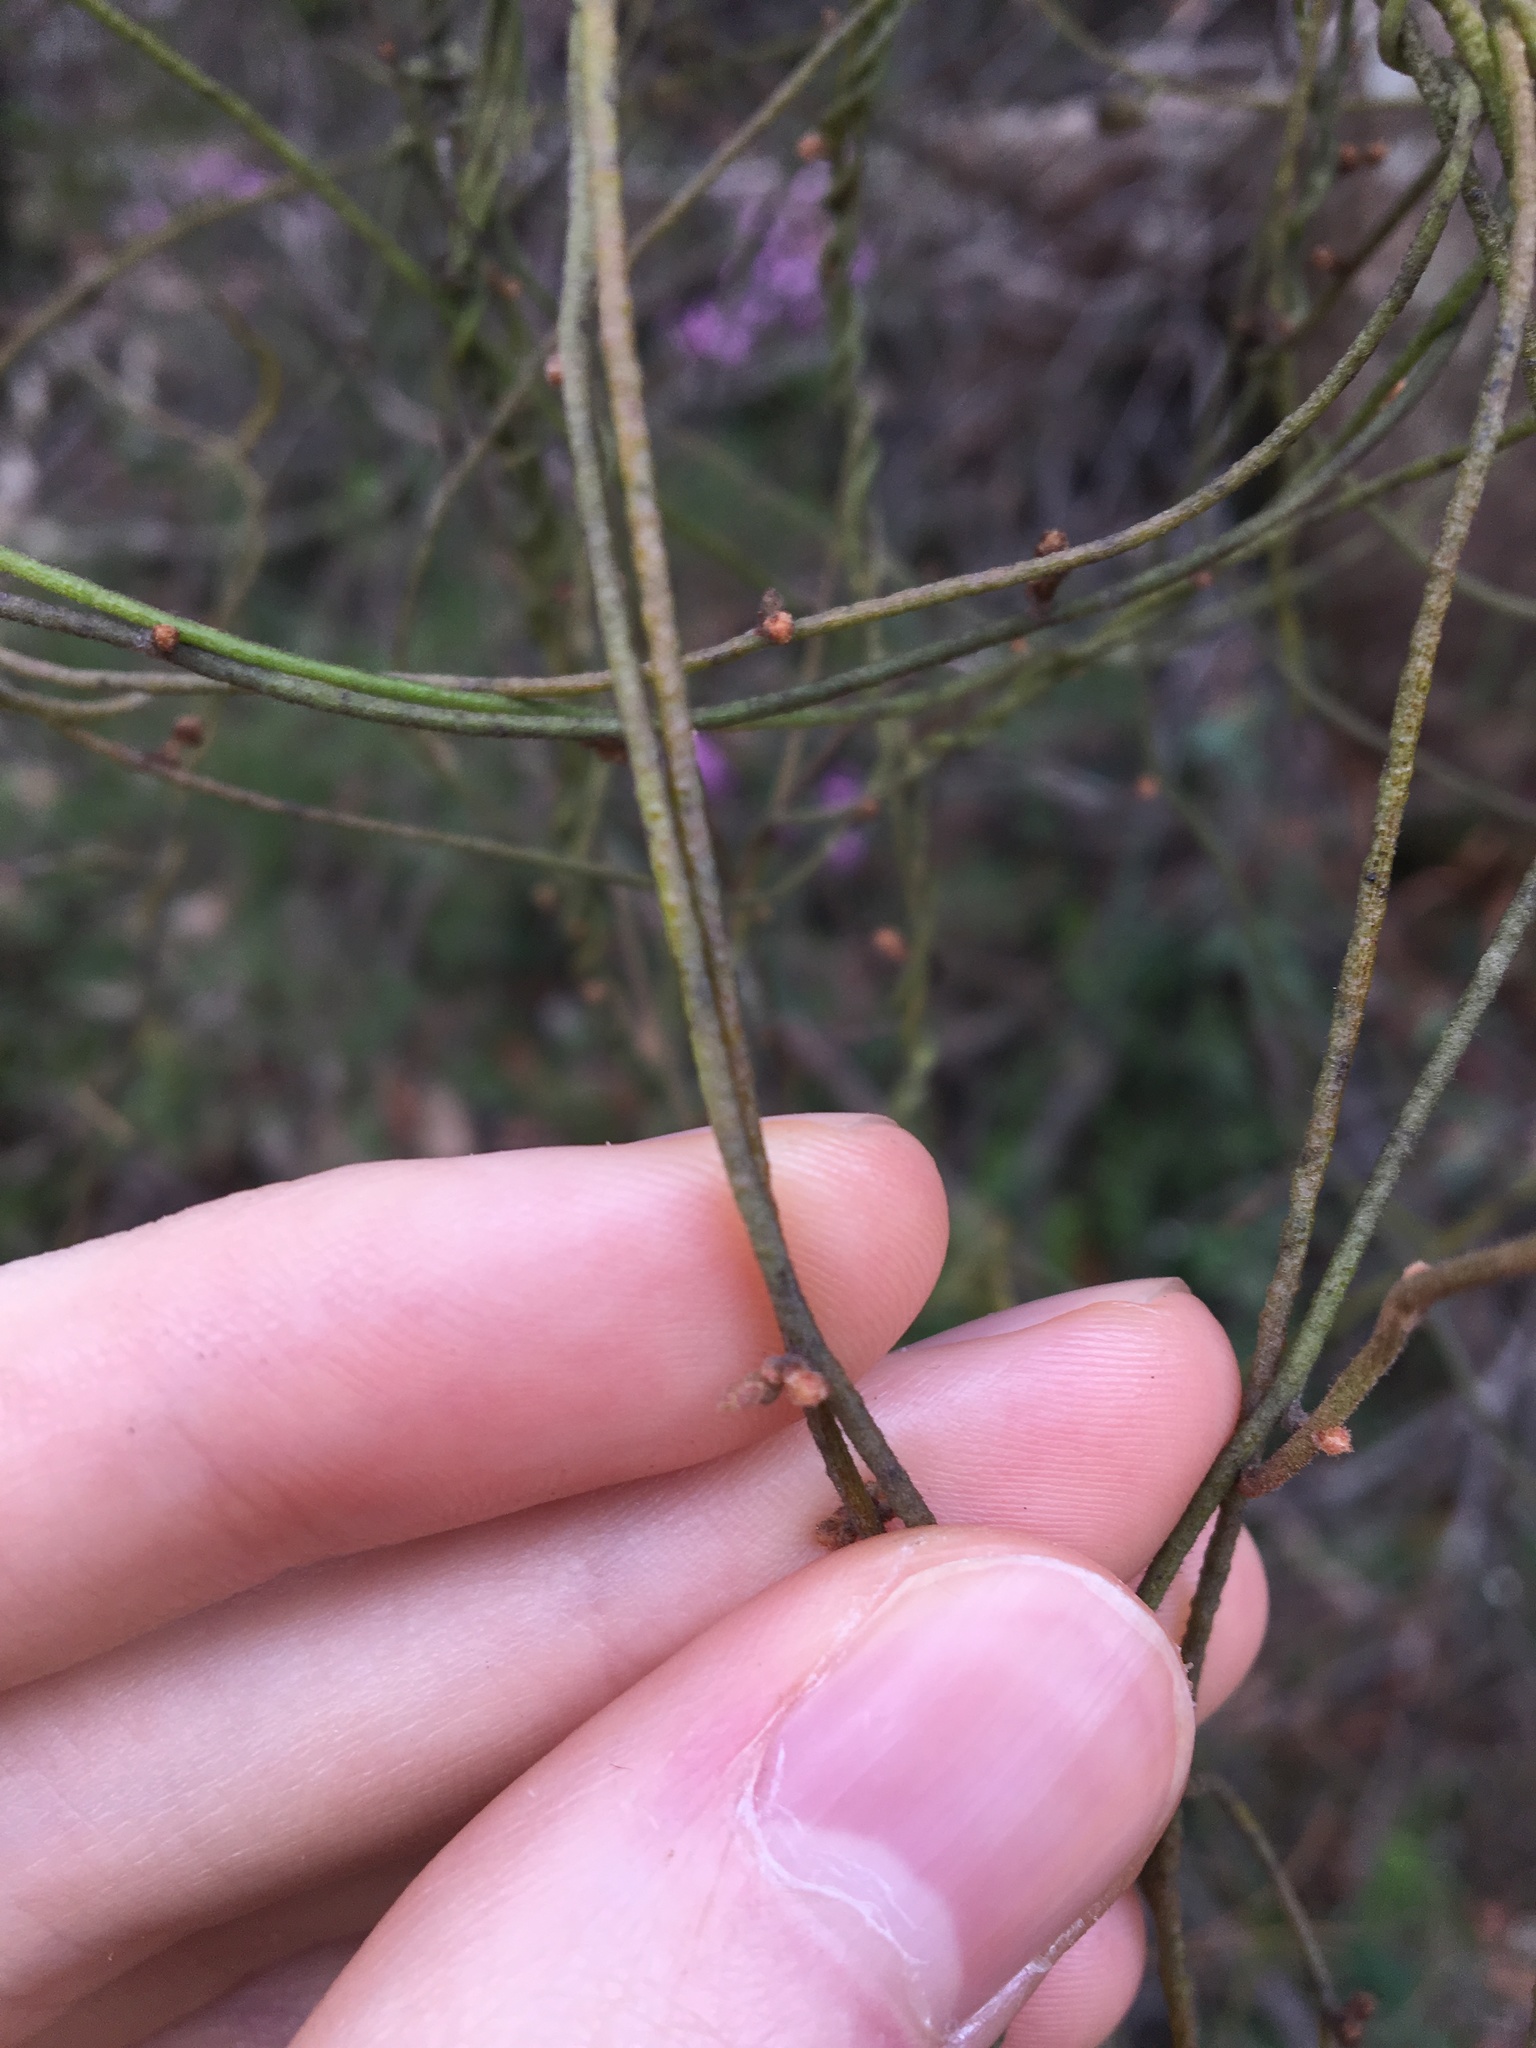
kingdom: Plantae
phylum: Tracheophyta
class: Magnoliopsida
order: Laurales
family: Lauraceae
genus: Cassytha
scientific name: Cassytha pubescens
